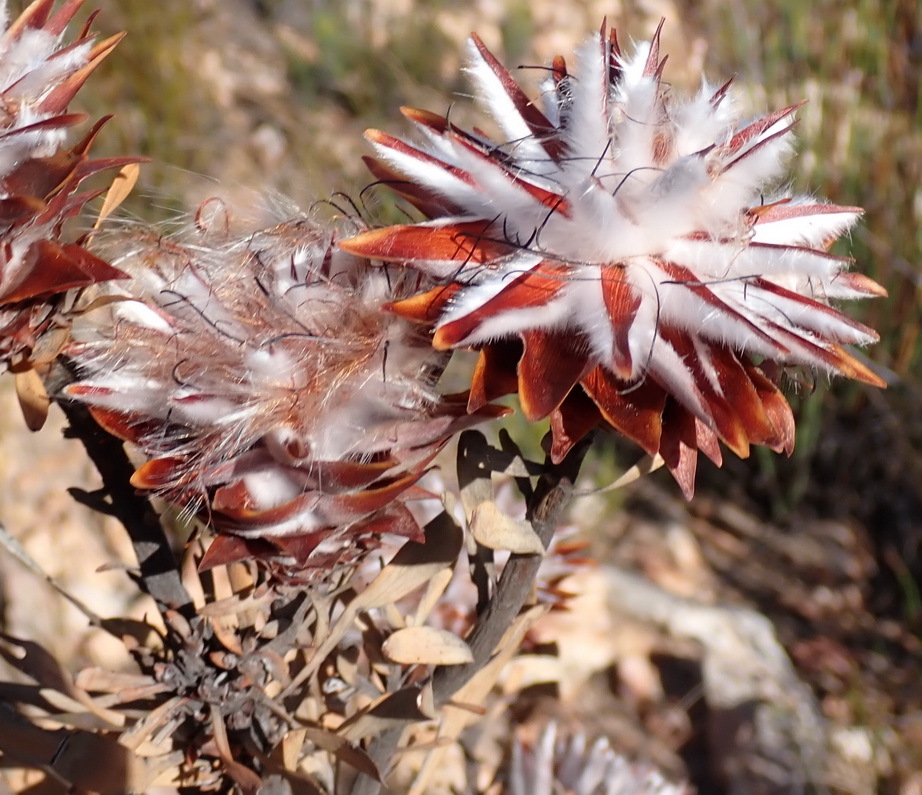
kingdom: Plantae
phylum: Tracheophyta
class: Magnoliopsida
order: Proteales
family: Proteaceae
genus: Leucadendron
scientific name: Leucadendron rubrum
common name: Spinning top
